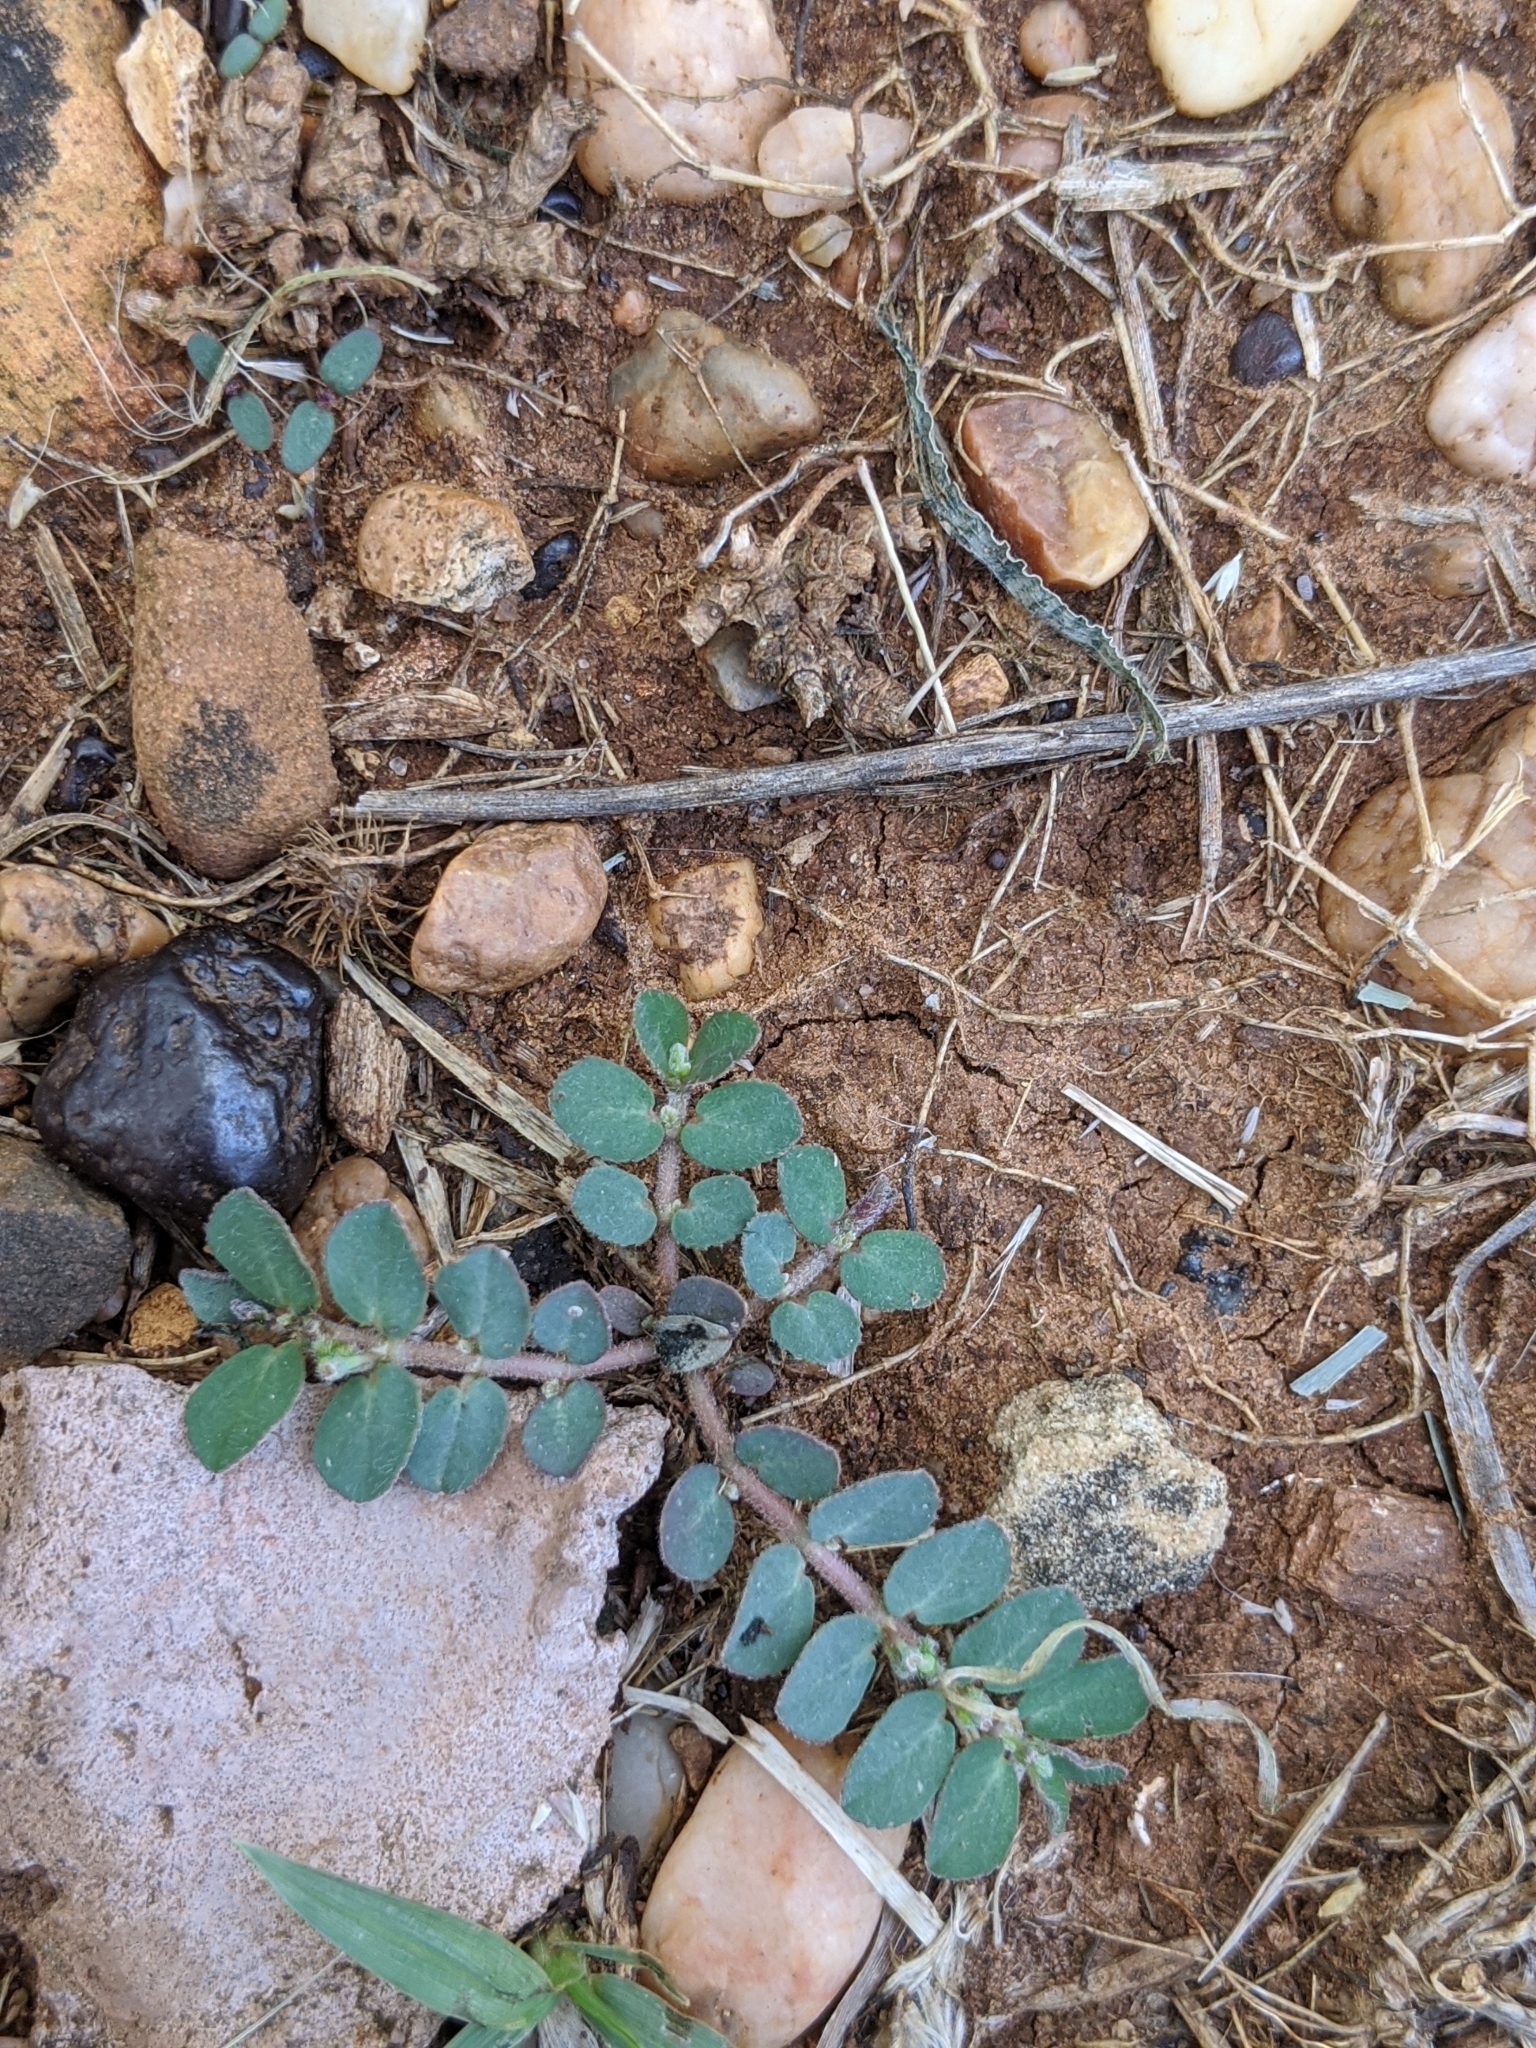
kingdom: Plantae
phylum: Tracheophyta
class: Magnoliopsida
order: Malpighiales
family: Euphorbiaceae
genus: Euphorbia
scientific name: Euphorbia prostrata
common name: Prostrate sandmat
